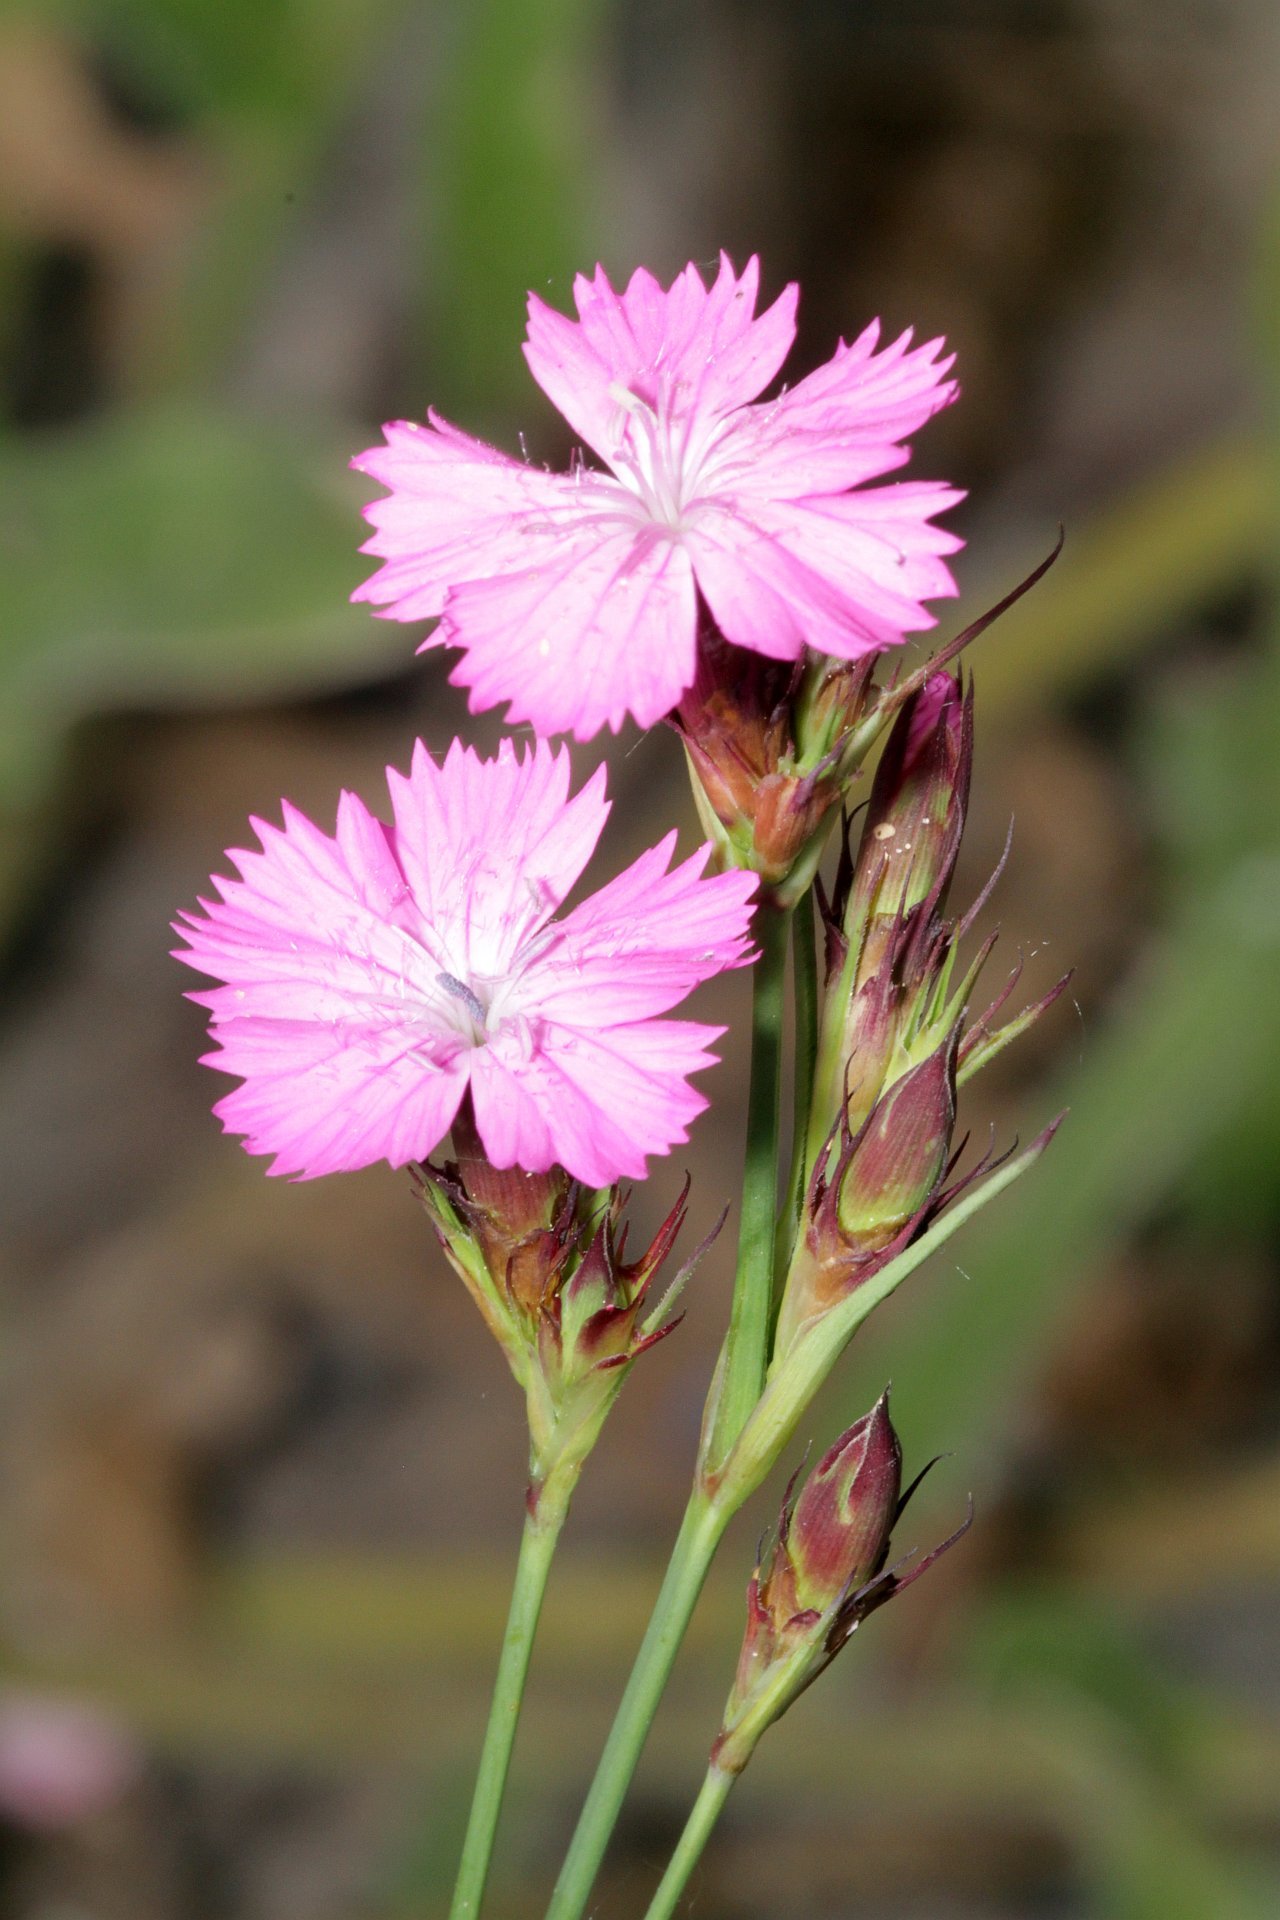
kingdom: Plantae
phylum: Tracheophyta
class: Magnoliopsida
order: Caryophyllales
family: Caryophyllaceae
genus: Dianthus
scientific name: Dianthus carthusianorum
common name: Carthusian pink
